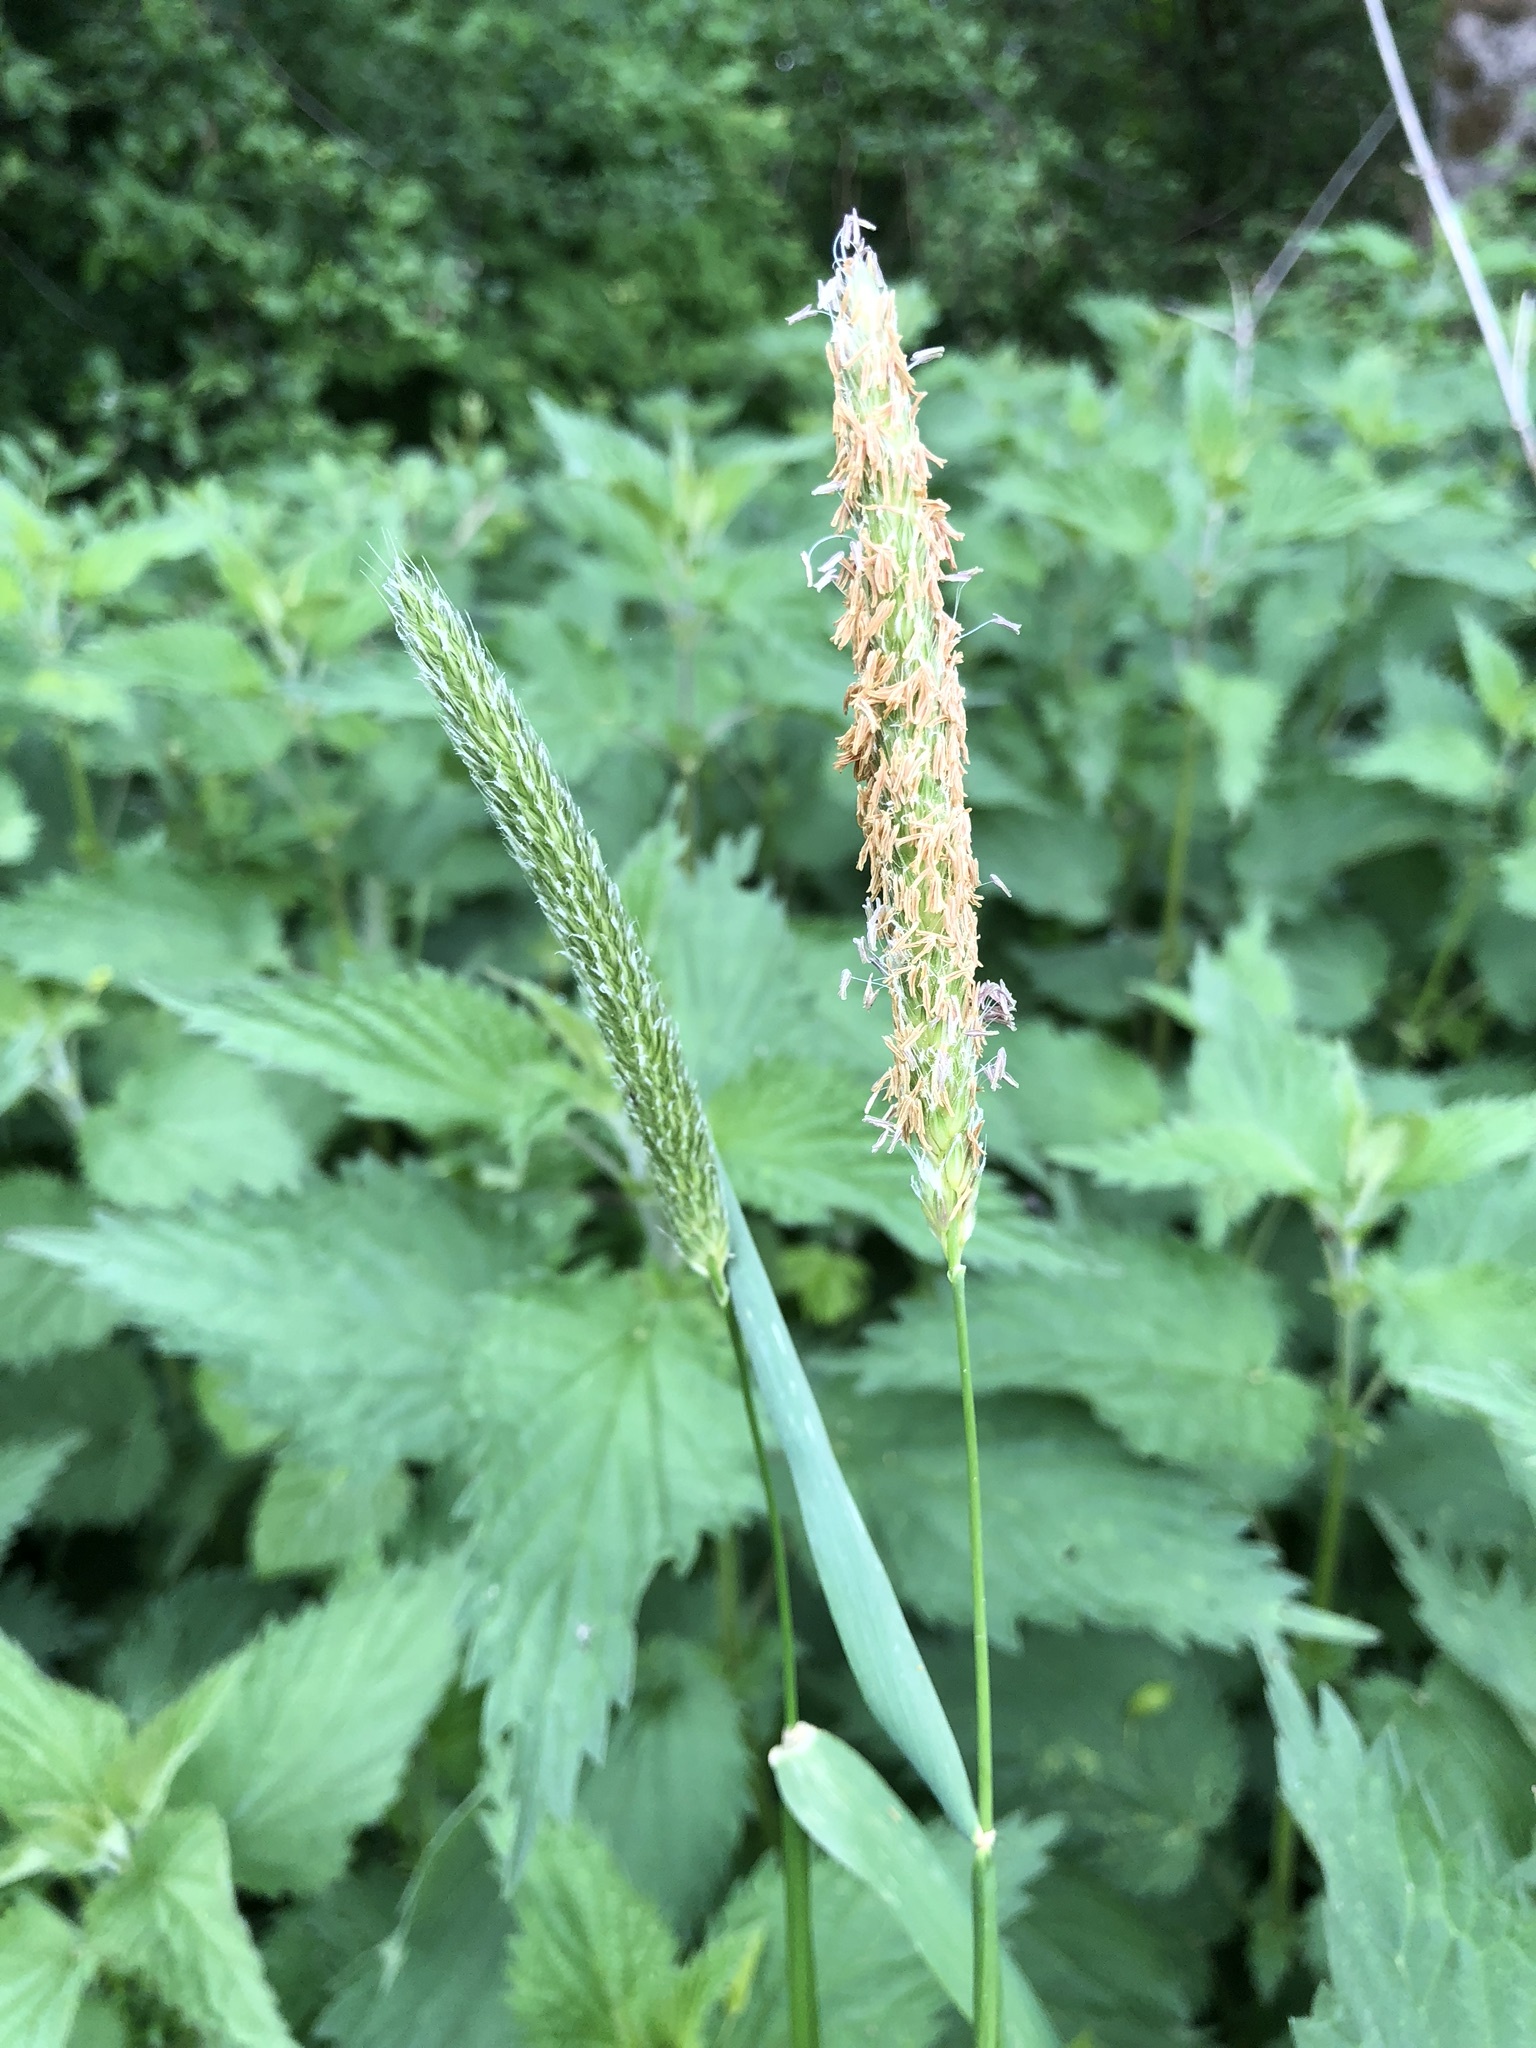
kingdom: Plantae
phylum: Tracheophyta
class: Liliopsida
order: Poales
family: Poaceae
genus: Alopecurus
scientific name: Alopecurus pratensis
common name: Meadow foxtail
